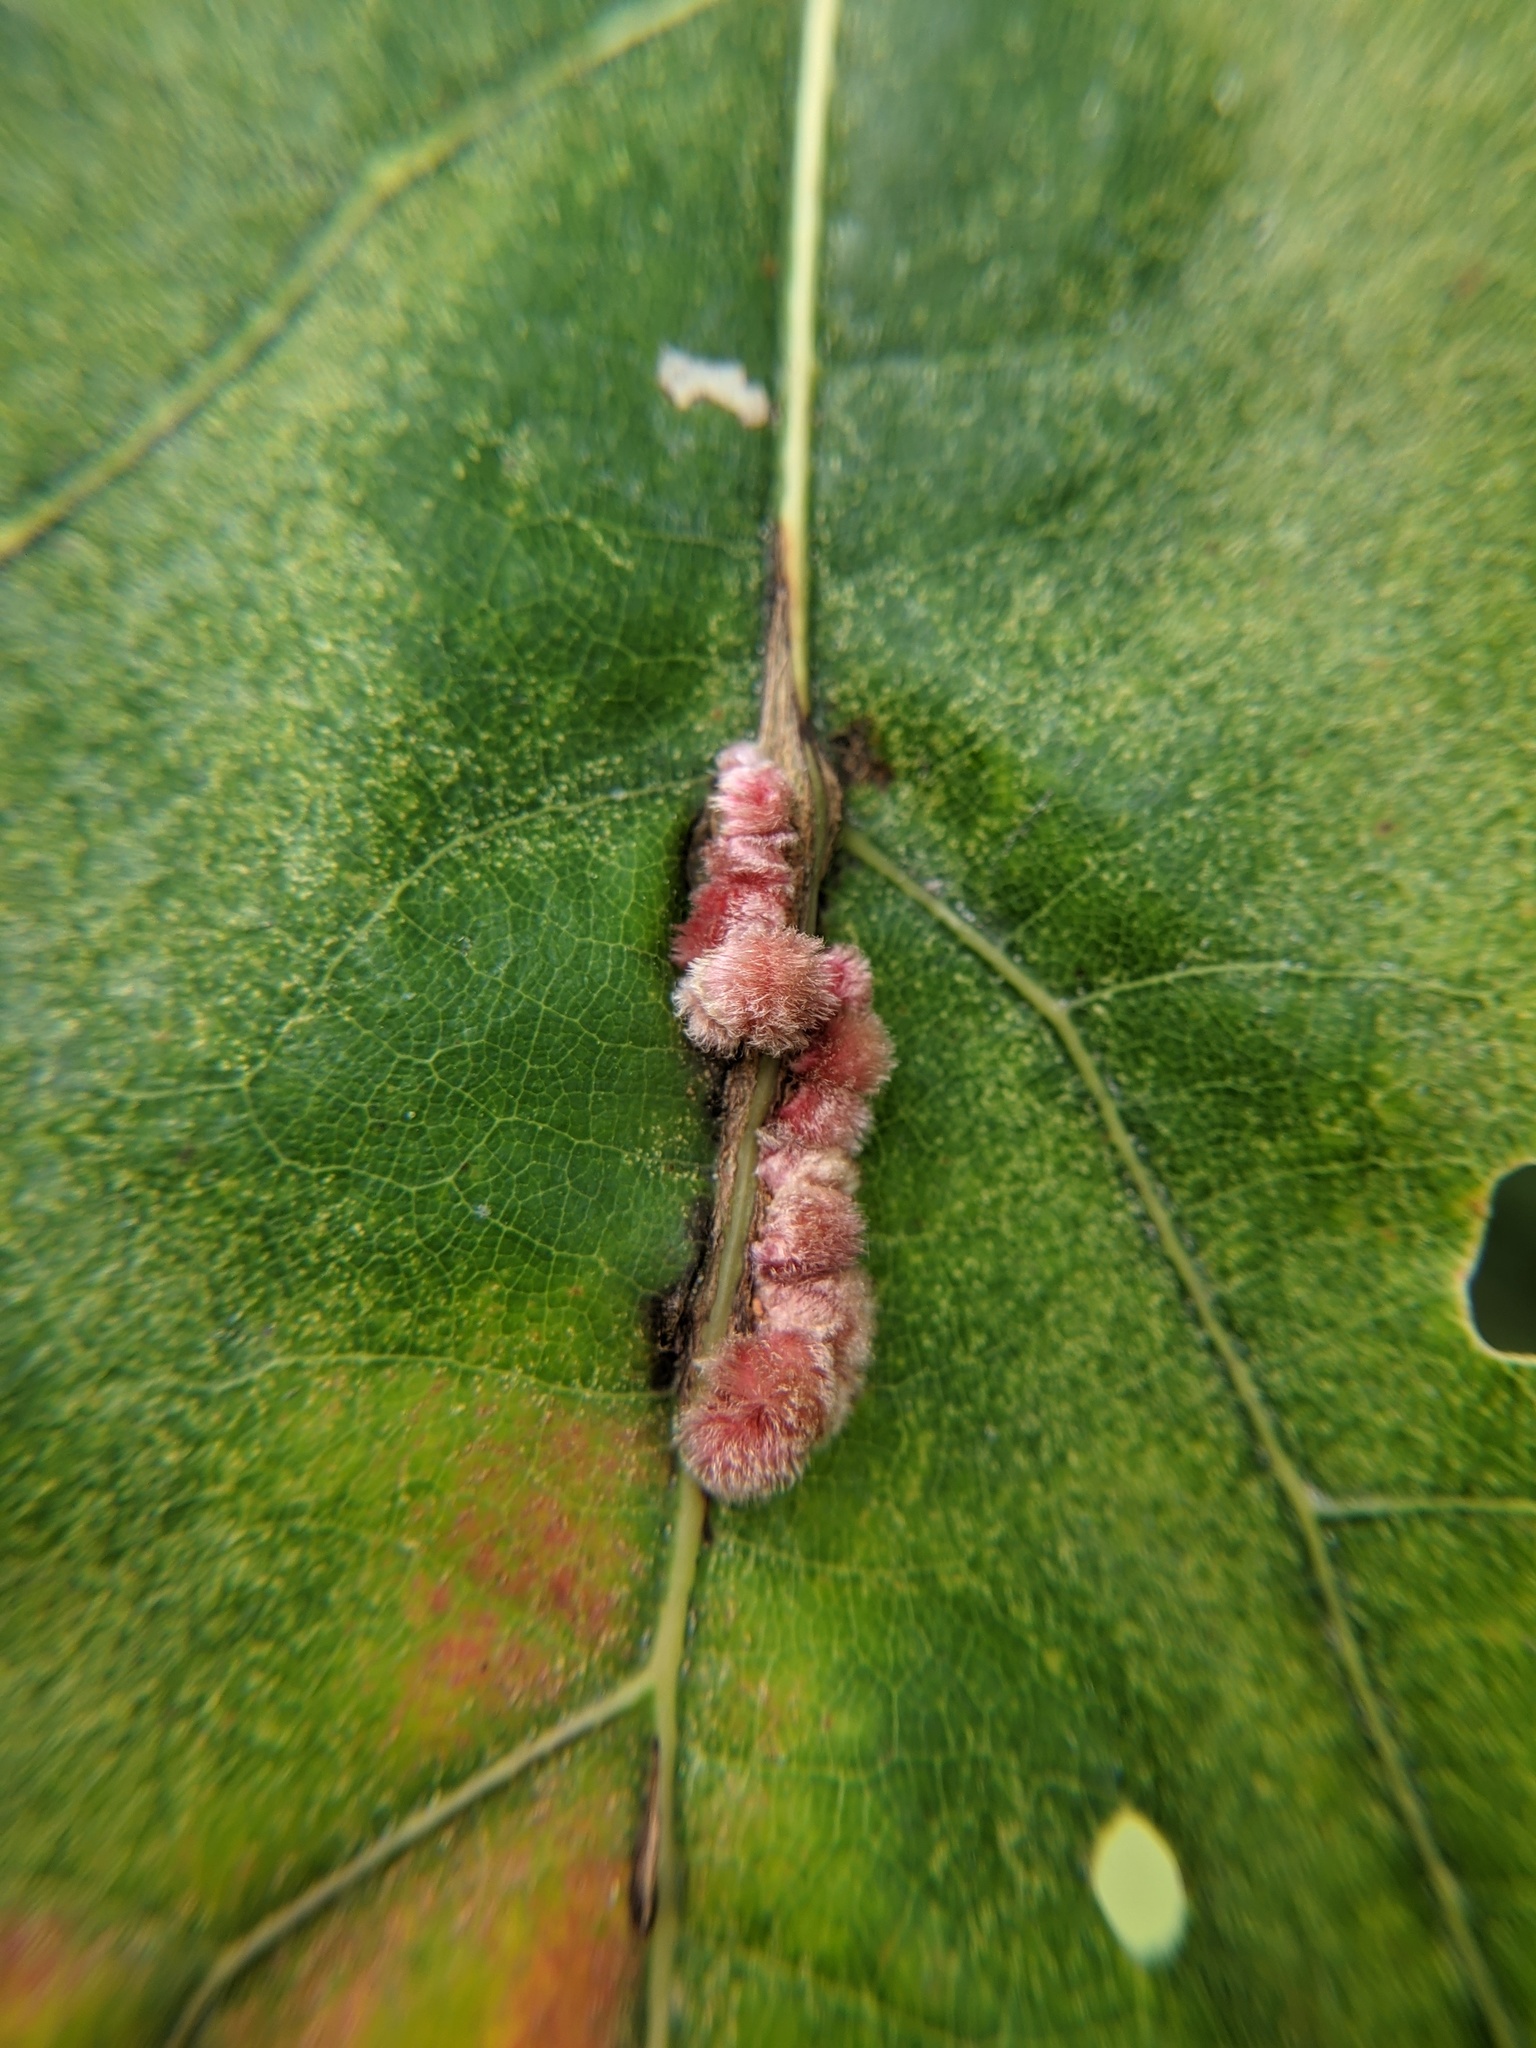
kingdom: Animalia
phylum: Arthropoda
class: Insecta
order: Hymenoptera
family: Cynipidae
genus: Callirhytis
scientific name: Callirhytis
